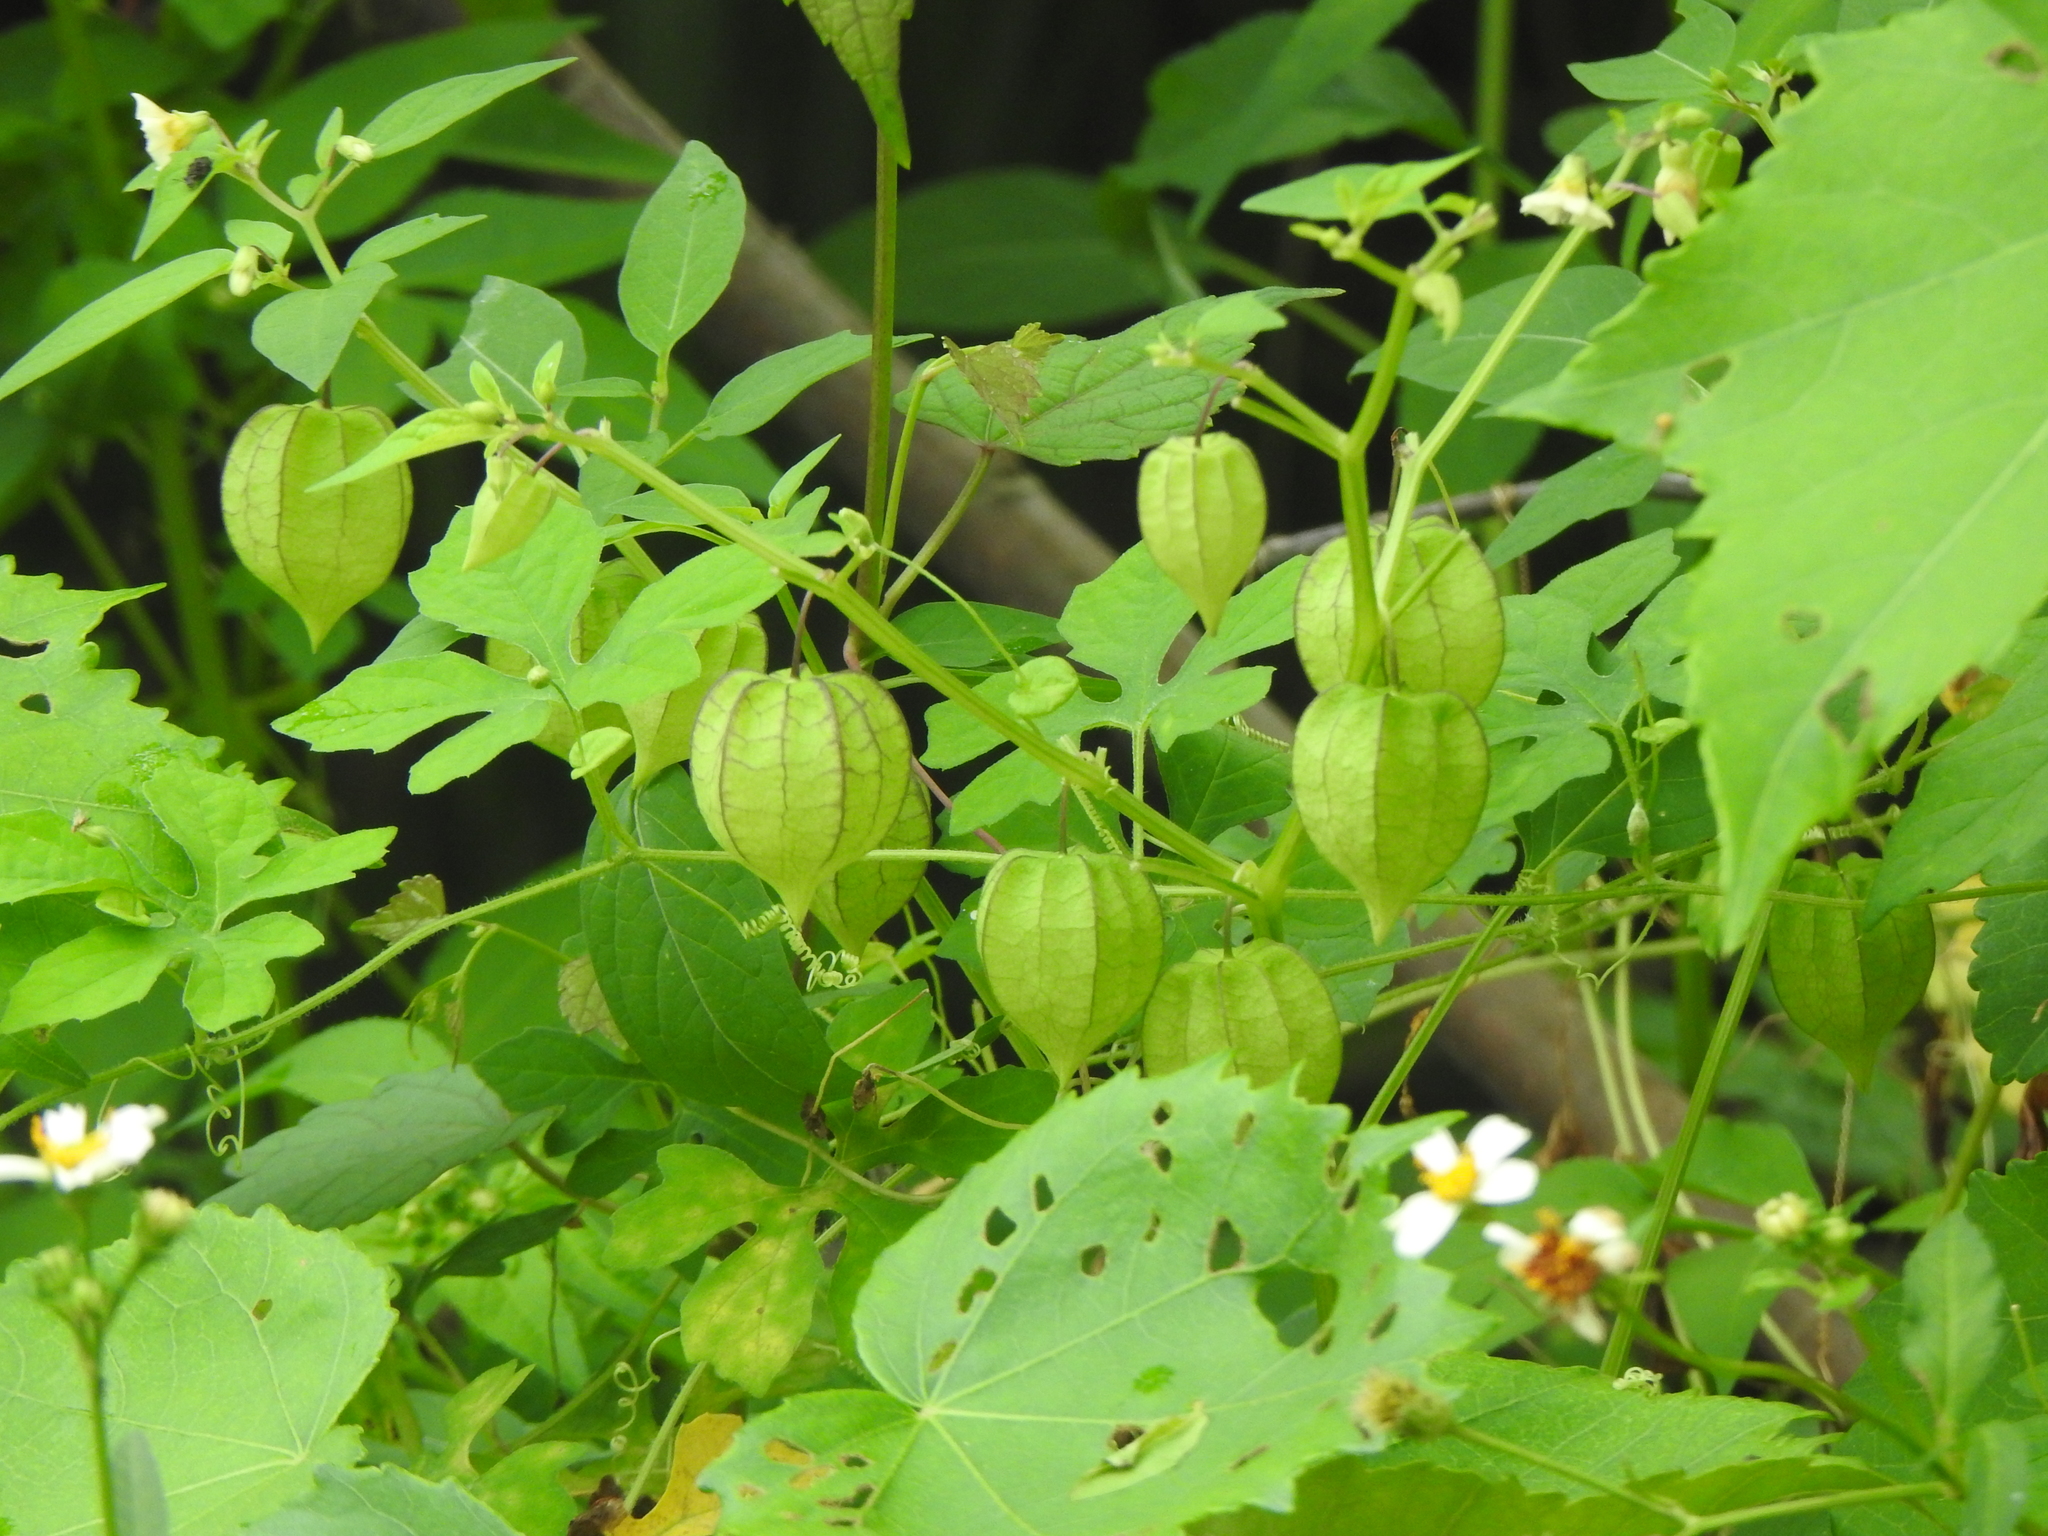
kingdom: Plantae
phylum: Tracheophyta
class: Magnoliopsida
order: Solanales
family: Solanaceae
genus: Physalis
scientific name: Physalis angulata
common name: Angular winter-cherry
